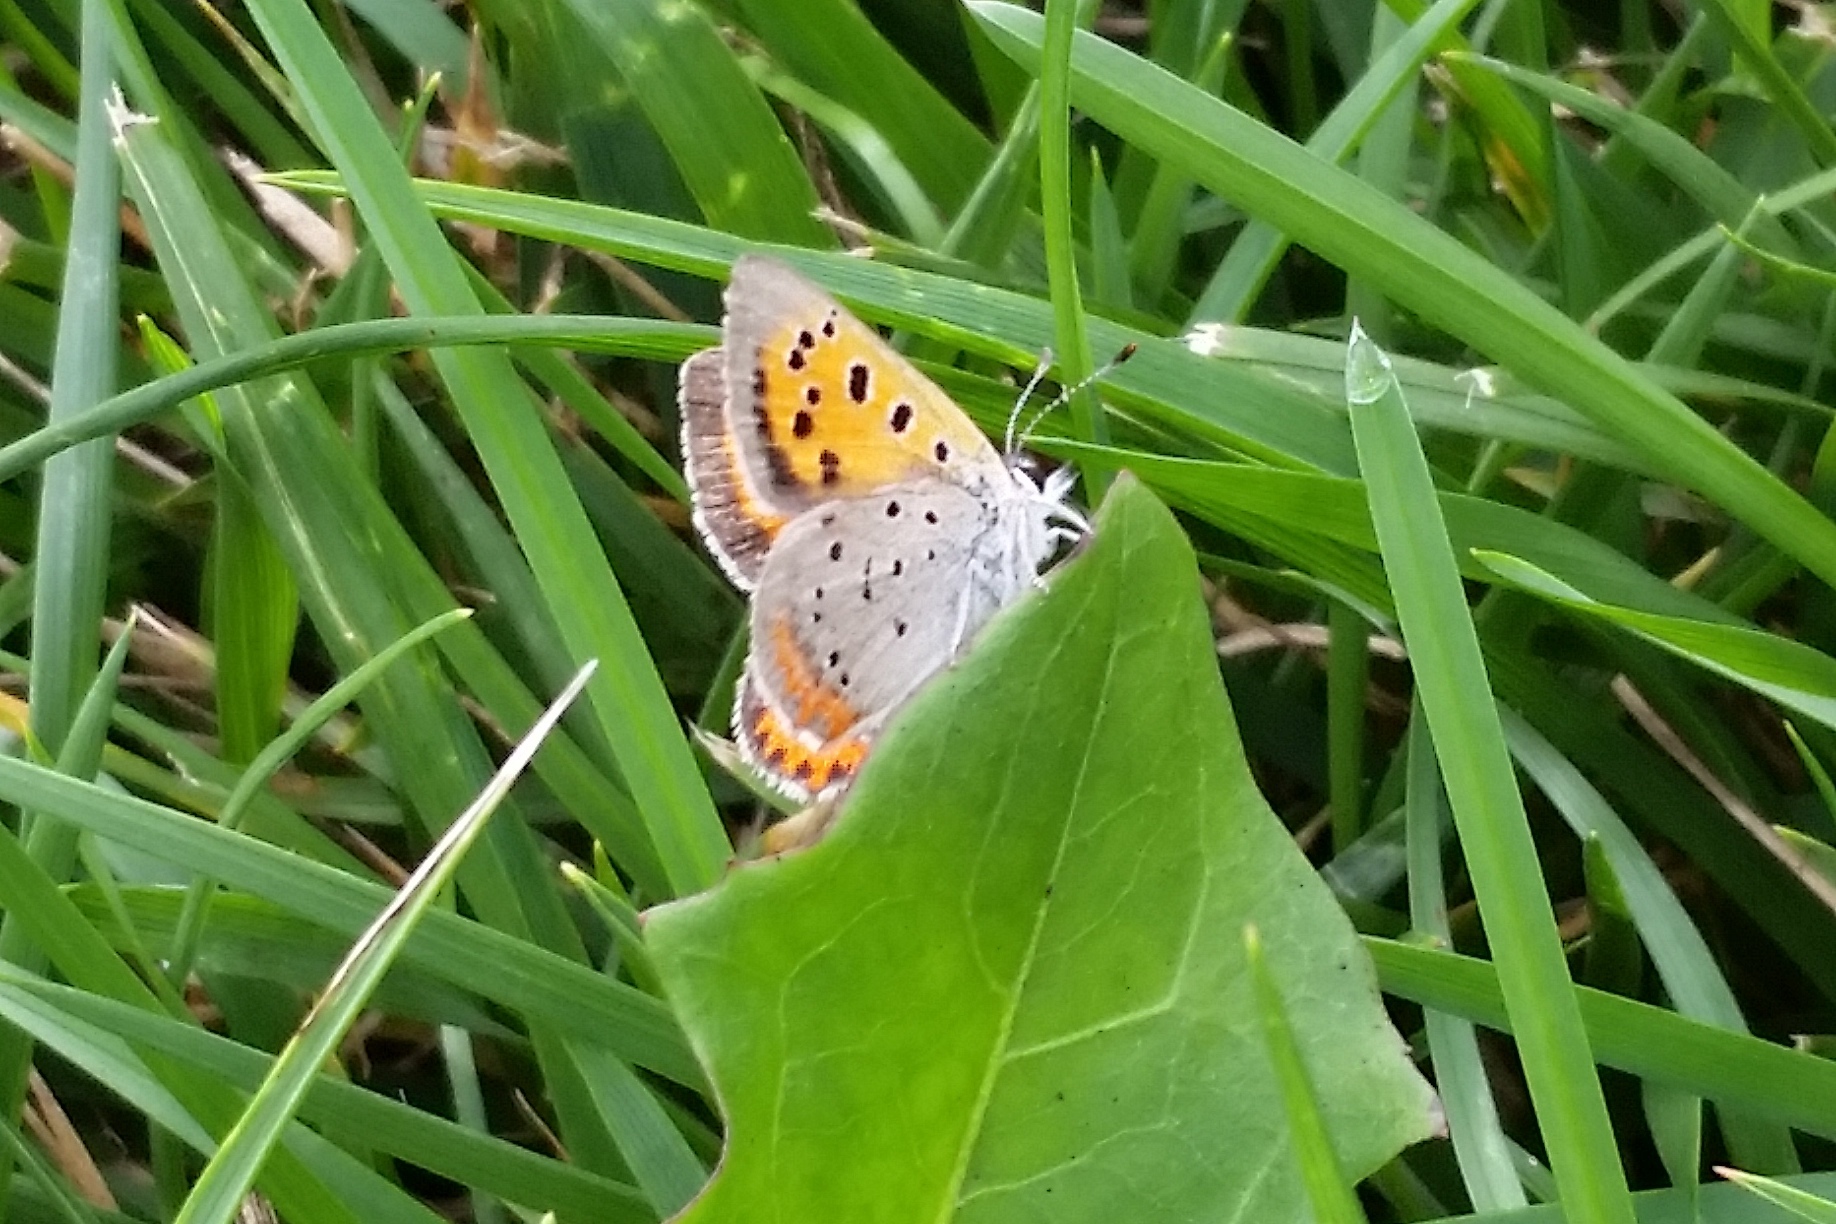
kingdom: Animalia
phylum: Arthropoda
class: Insecta
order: Lepidoptera
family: Lycaenidae
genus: Lycaena
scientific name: Lycaena hypophlaeas
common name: American copper
